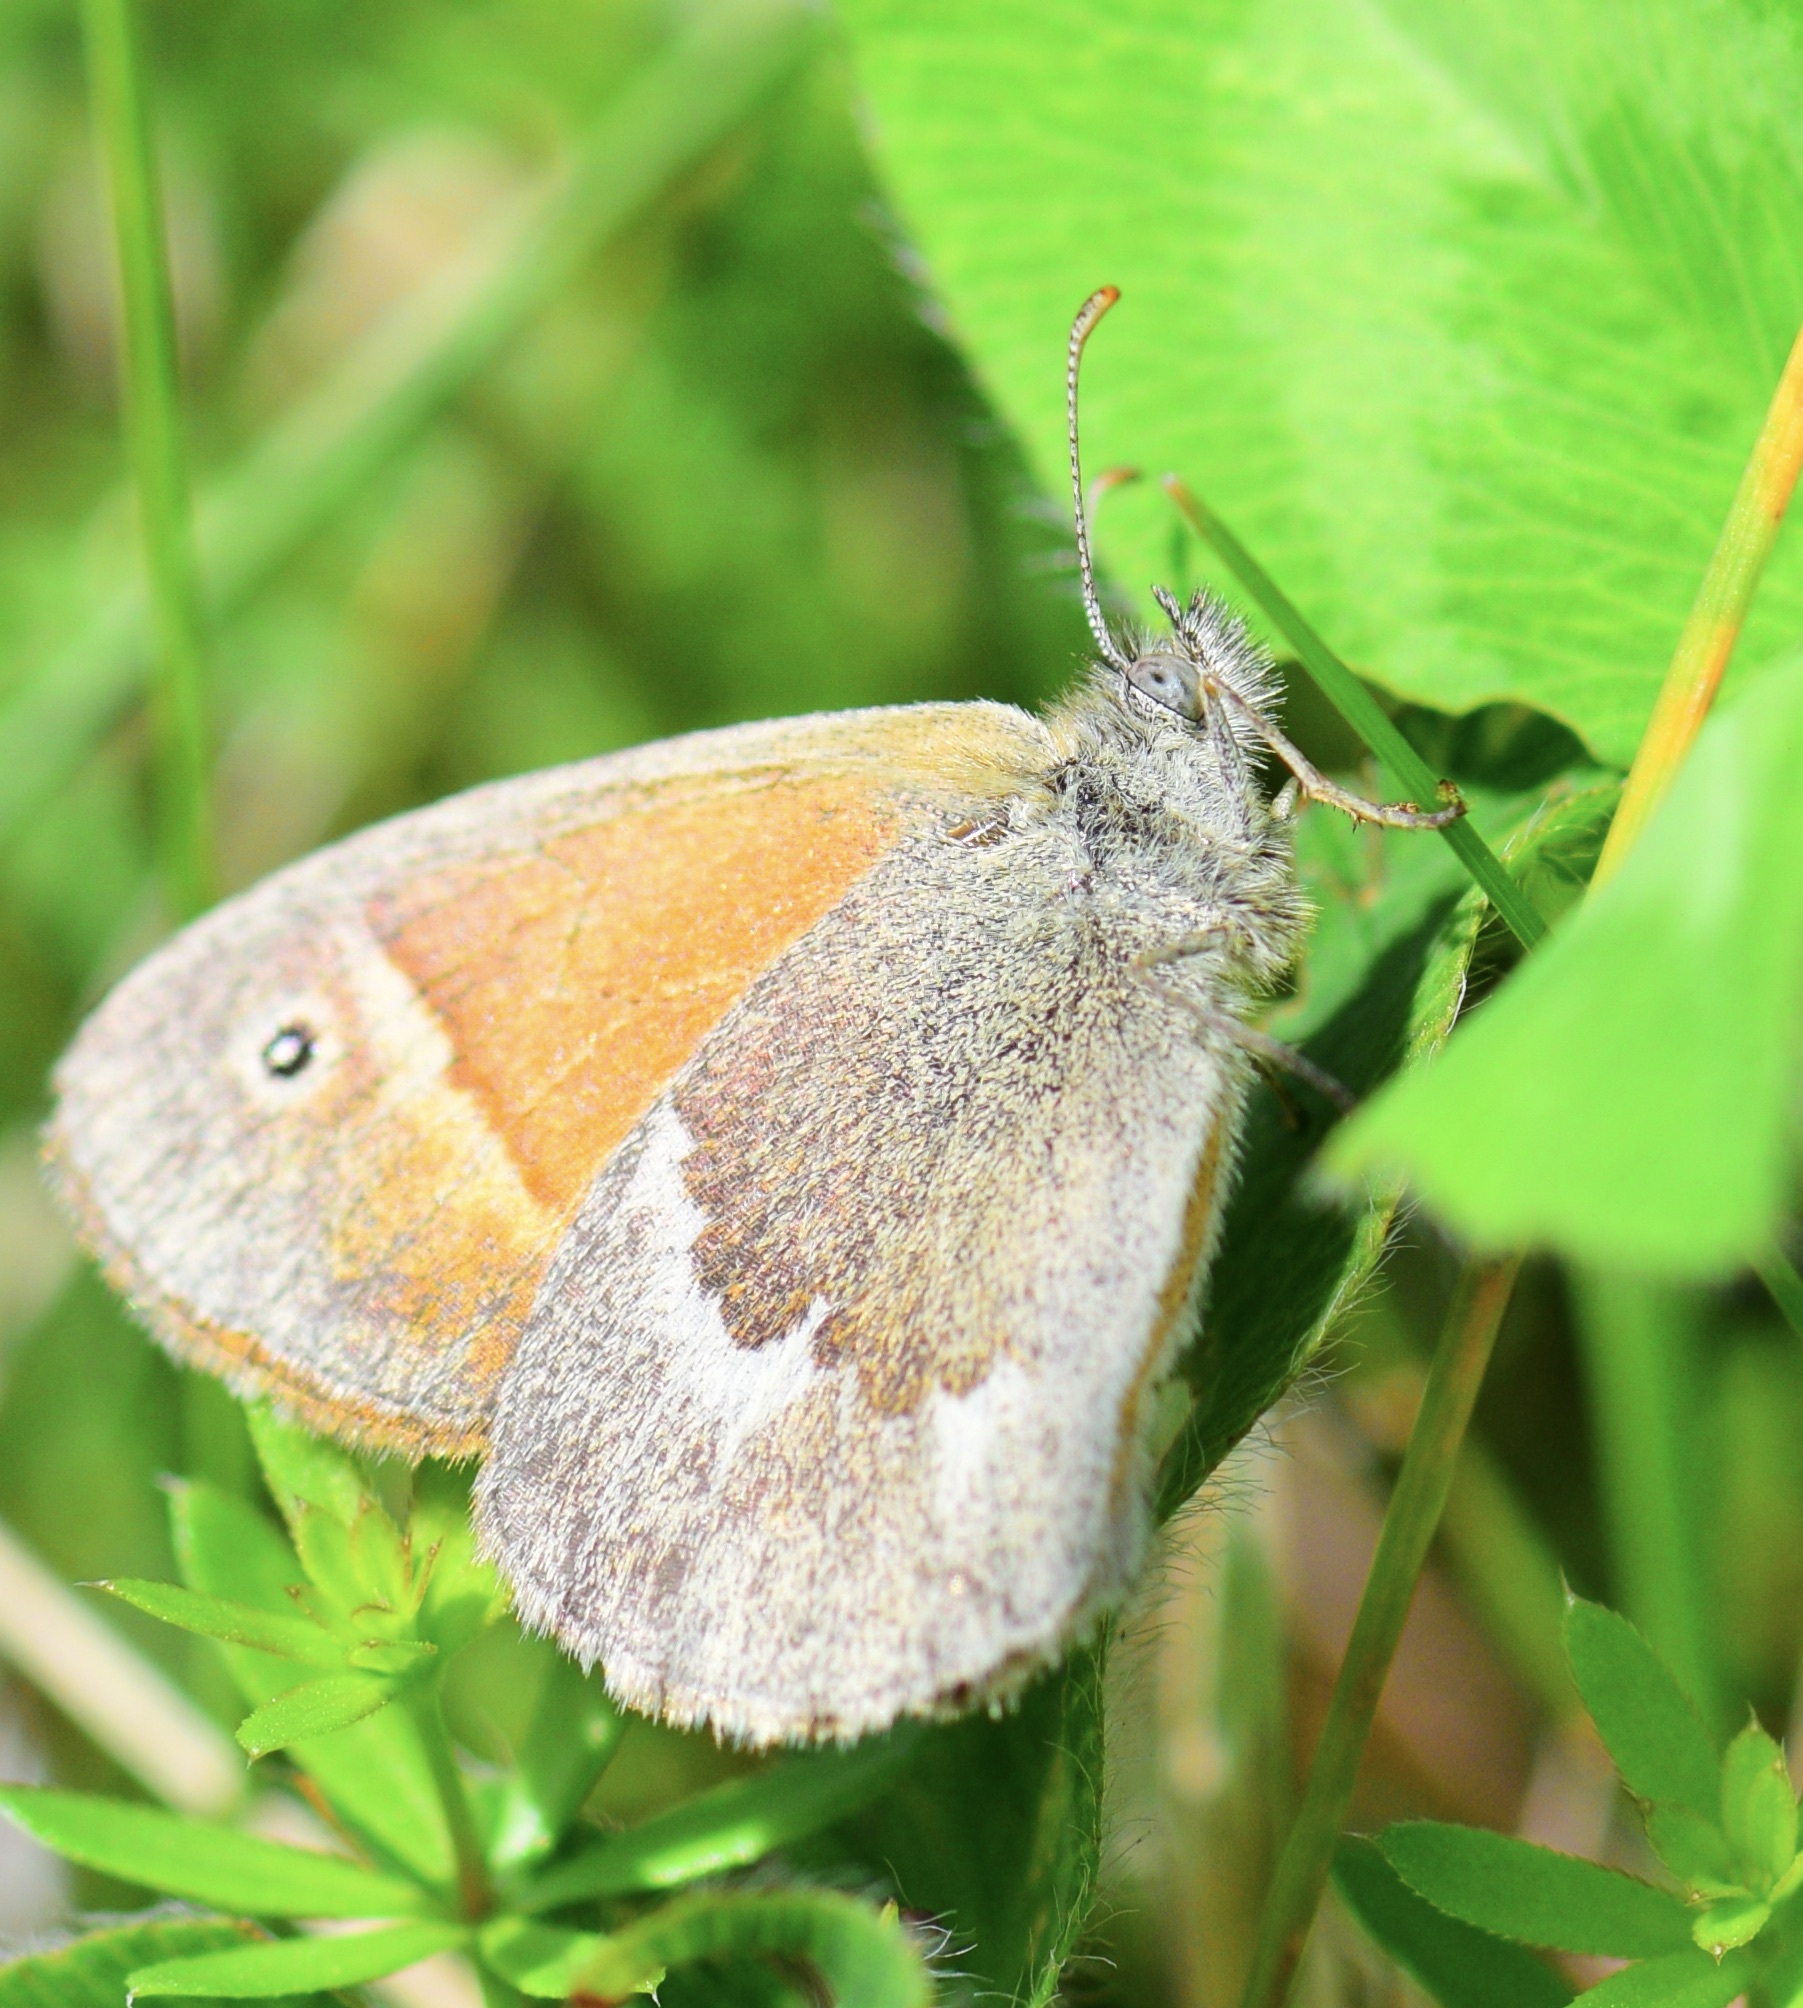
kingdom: Animalia
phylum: Arthropoda
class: Insecta
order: Lepidoptera
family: Nymphalidae
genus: Coenonympha
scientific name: Coenonympha california
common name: Common ringlet
